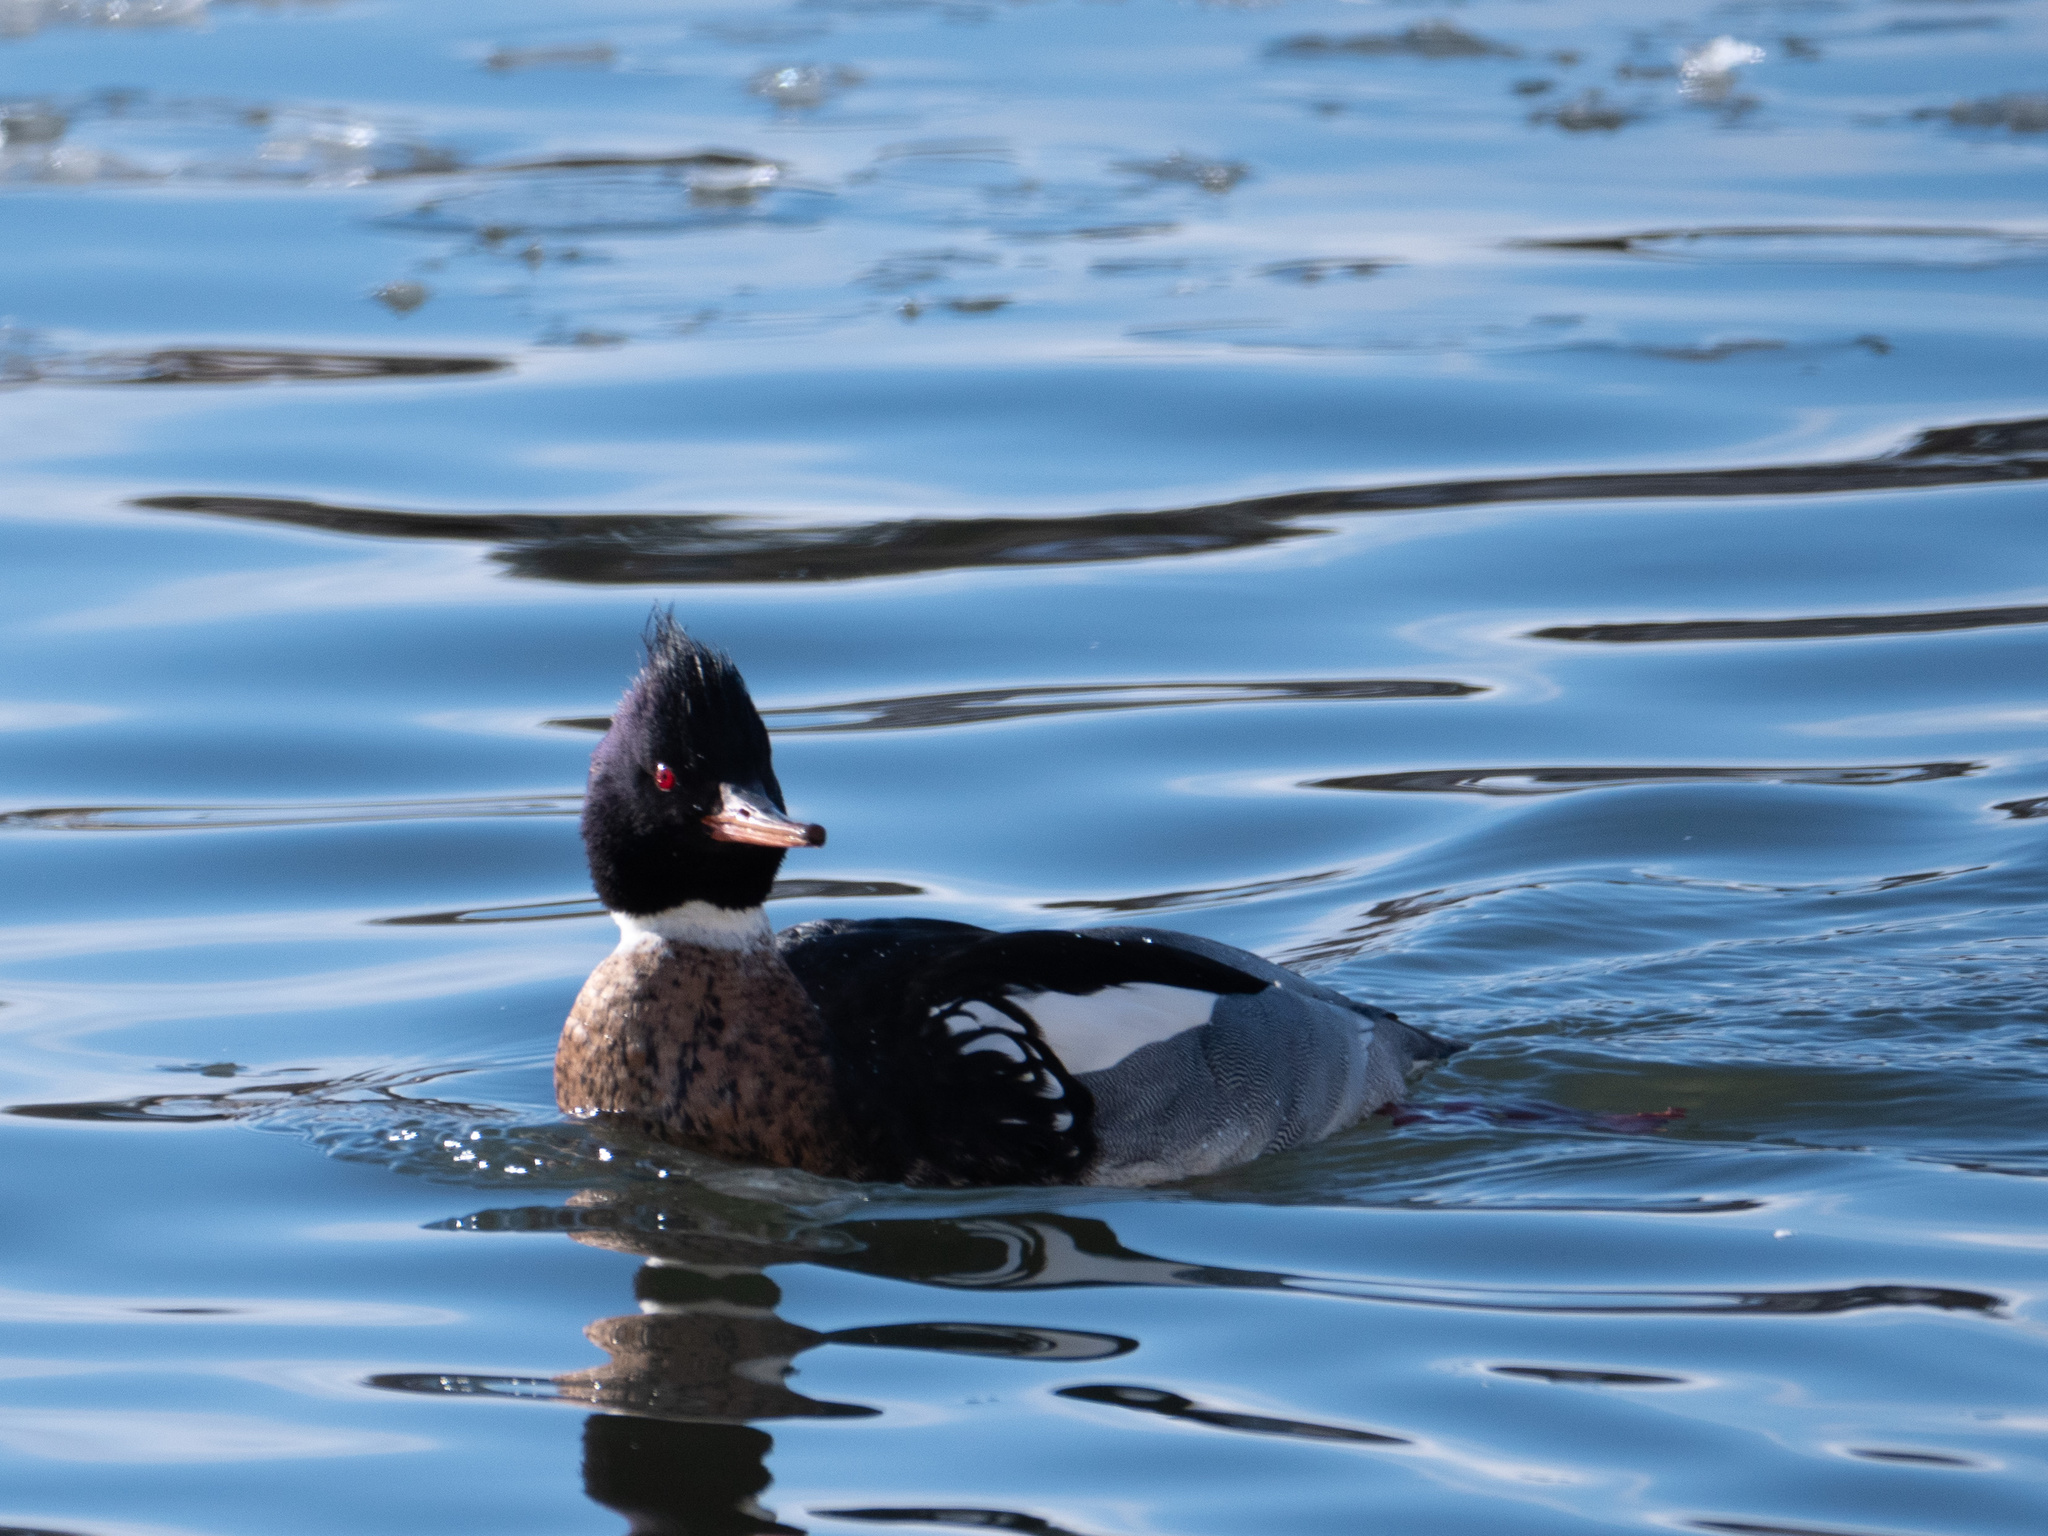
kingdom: Animalia
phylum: Chordata
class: Aves
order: Anseriformes
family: Anatidae
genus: Mergus
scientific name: Mergus serrator
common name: Red-breasted merganser
